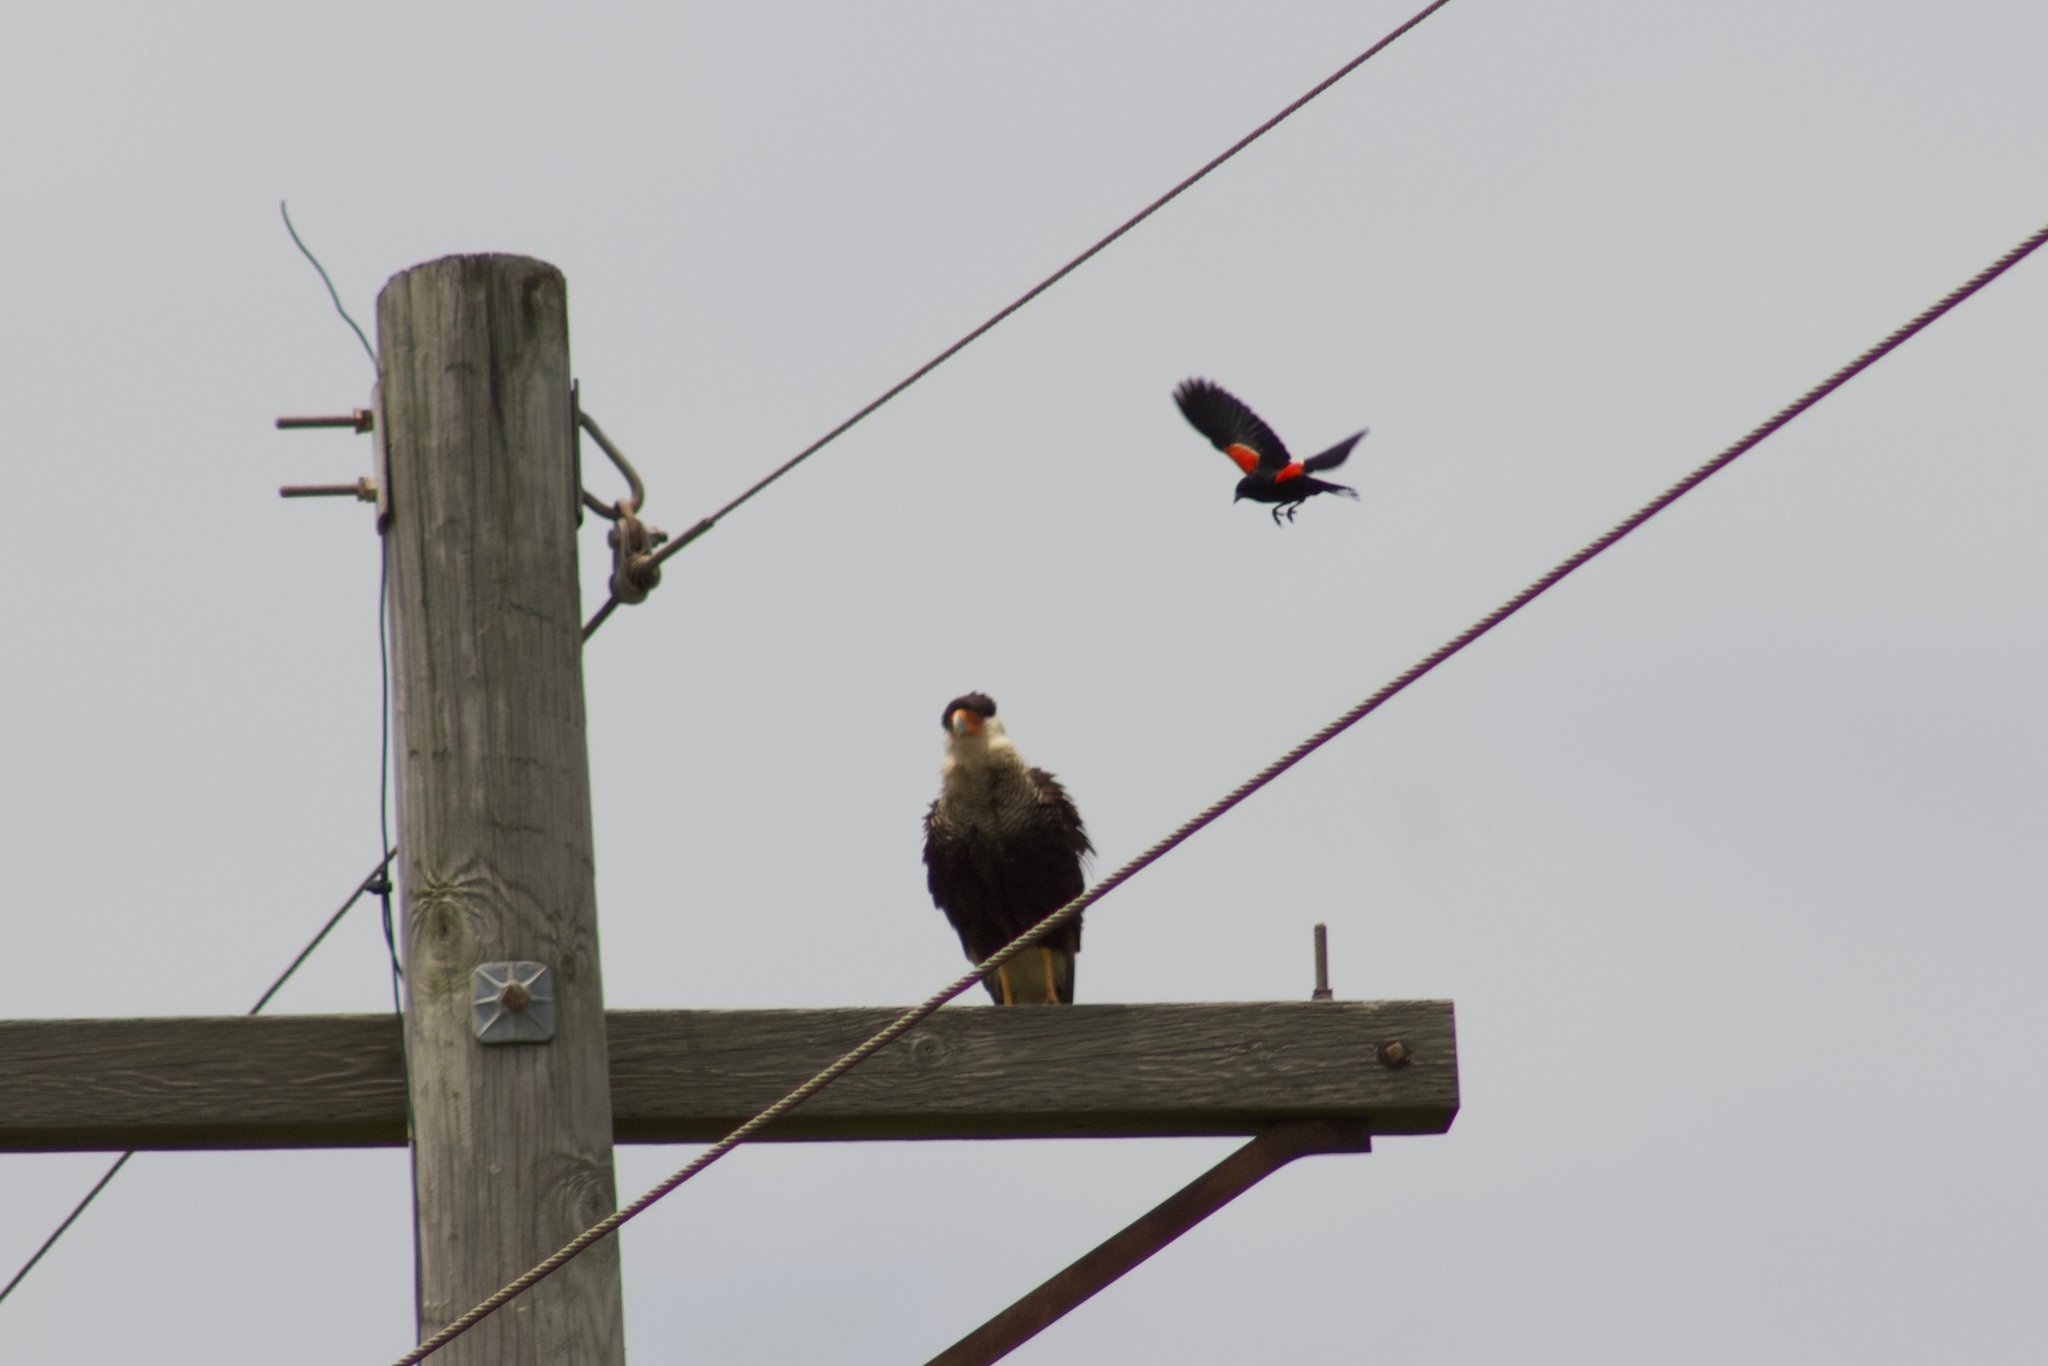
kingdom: Animalia
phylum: Chordata
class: Aves
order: Falconiformes
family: Falconidae
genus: Caracara
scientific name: Caracara plancus
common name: Southern caracara
